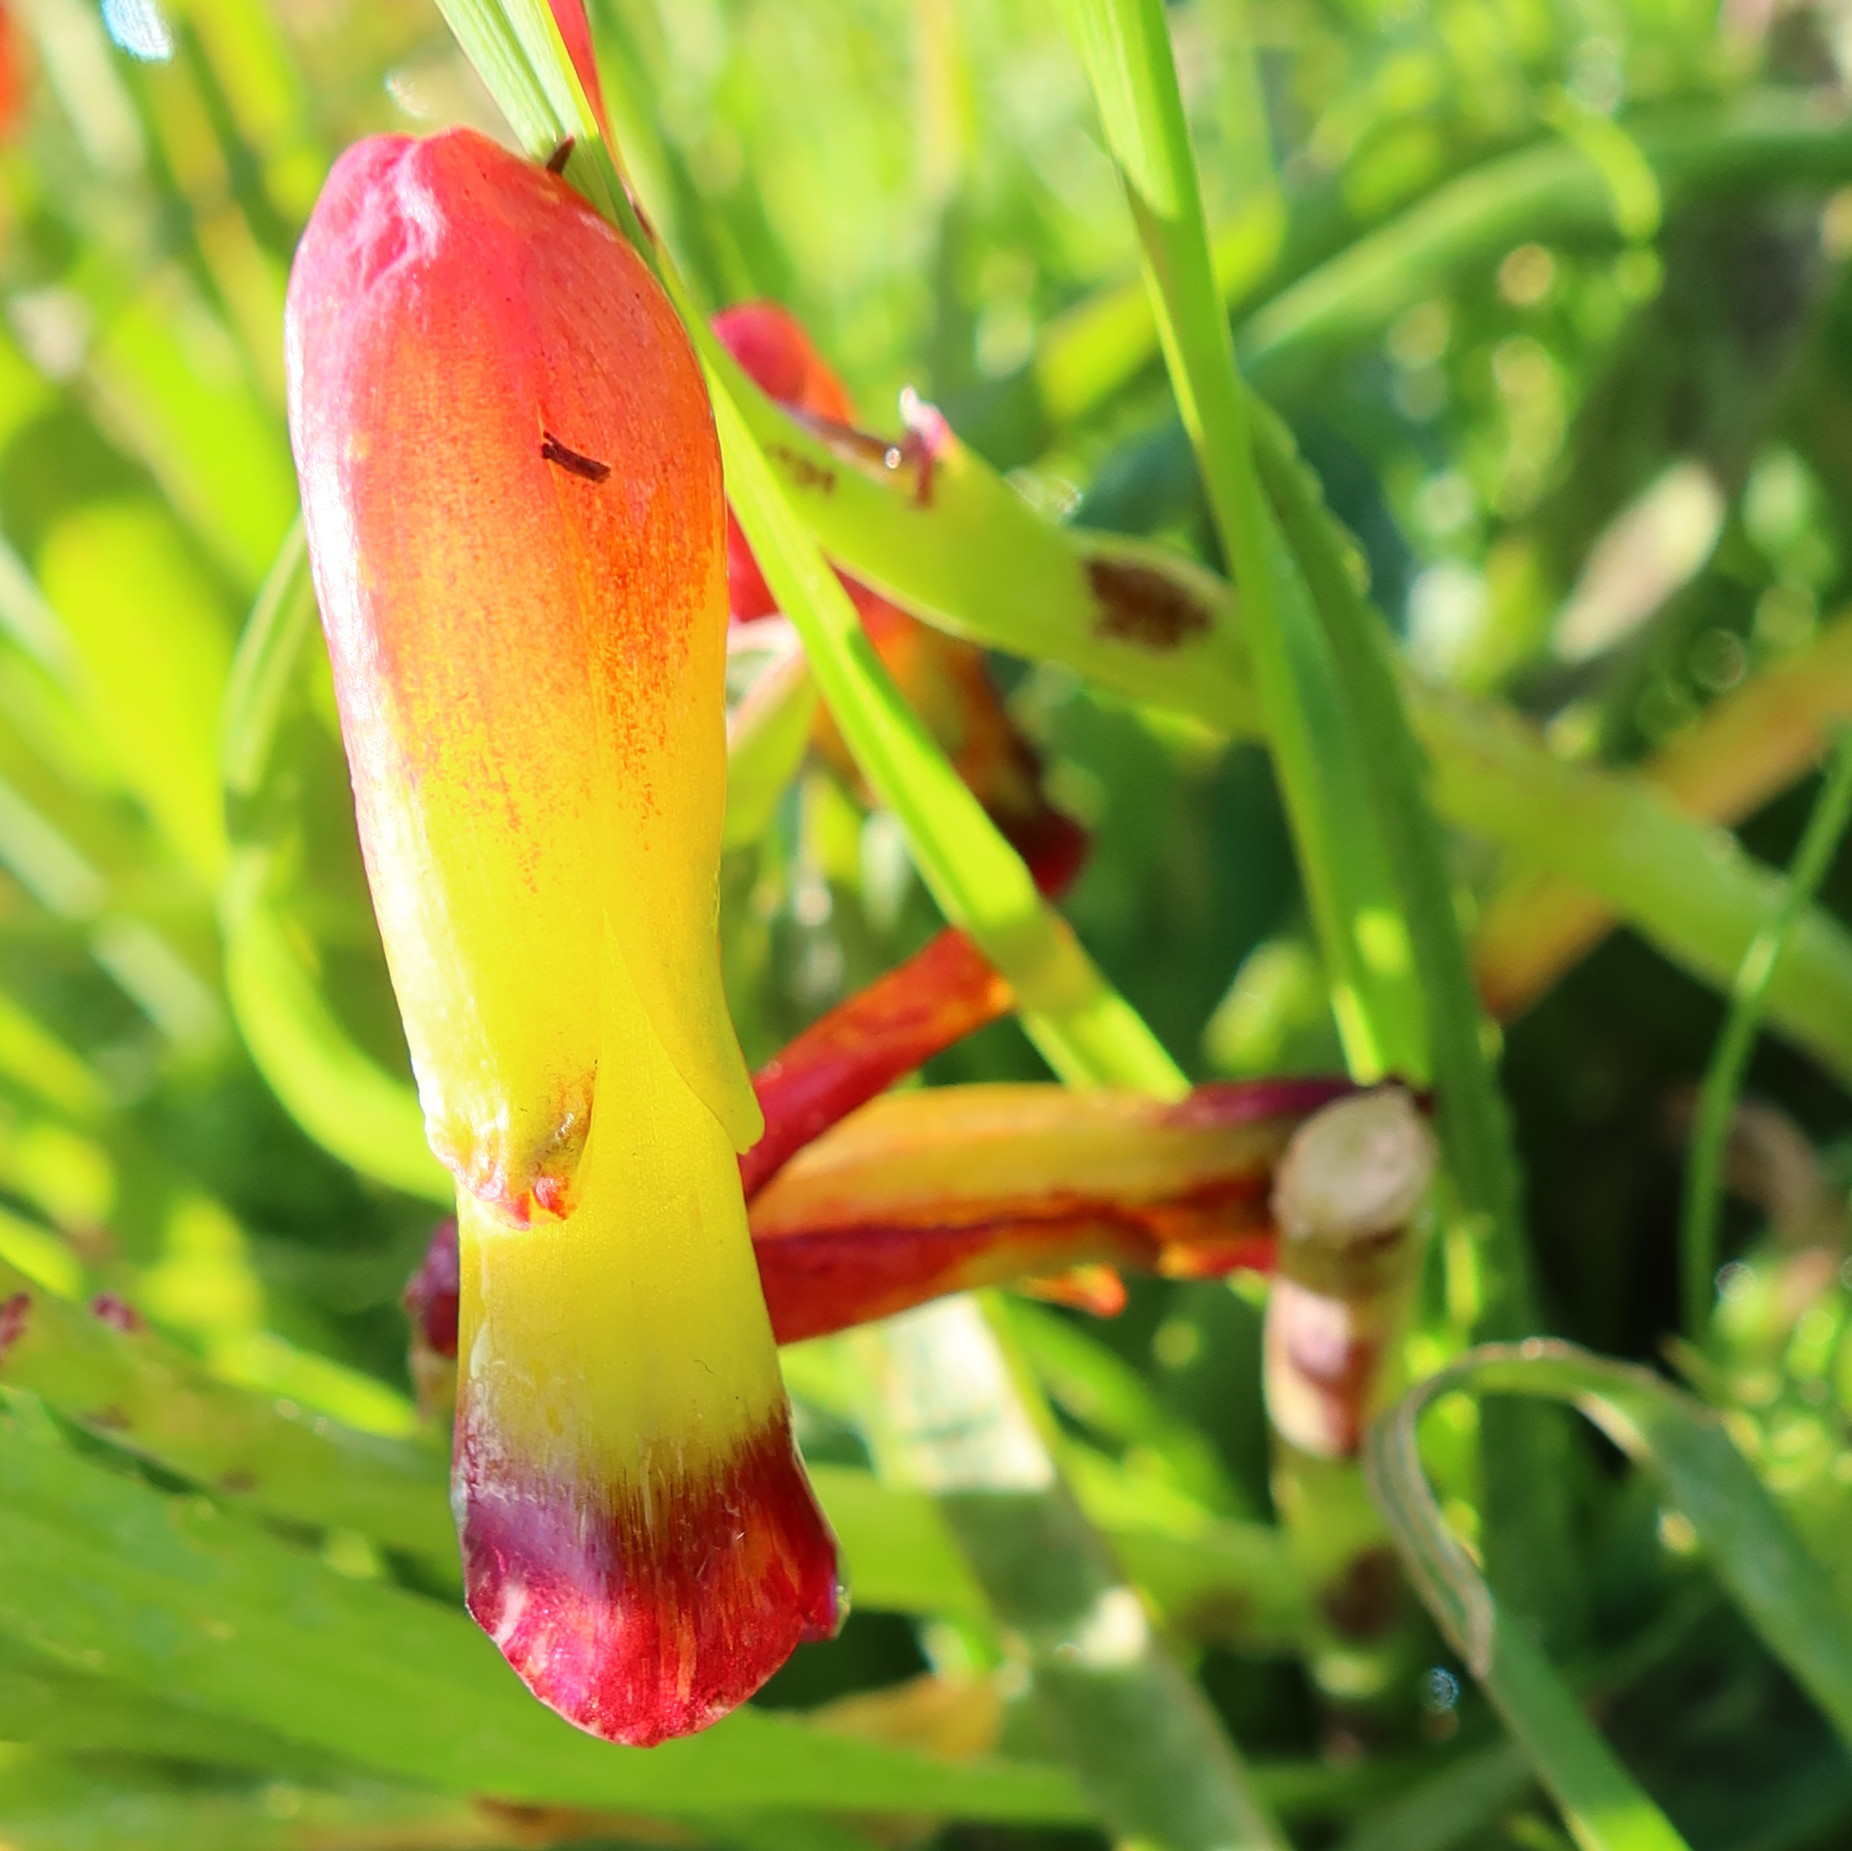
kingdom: Plantae
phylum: Tracheophyta
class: Liliopsida
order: Asparagales
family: Asparagaceae
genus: Lachenalia
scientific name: Lachenalia quadricolor
